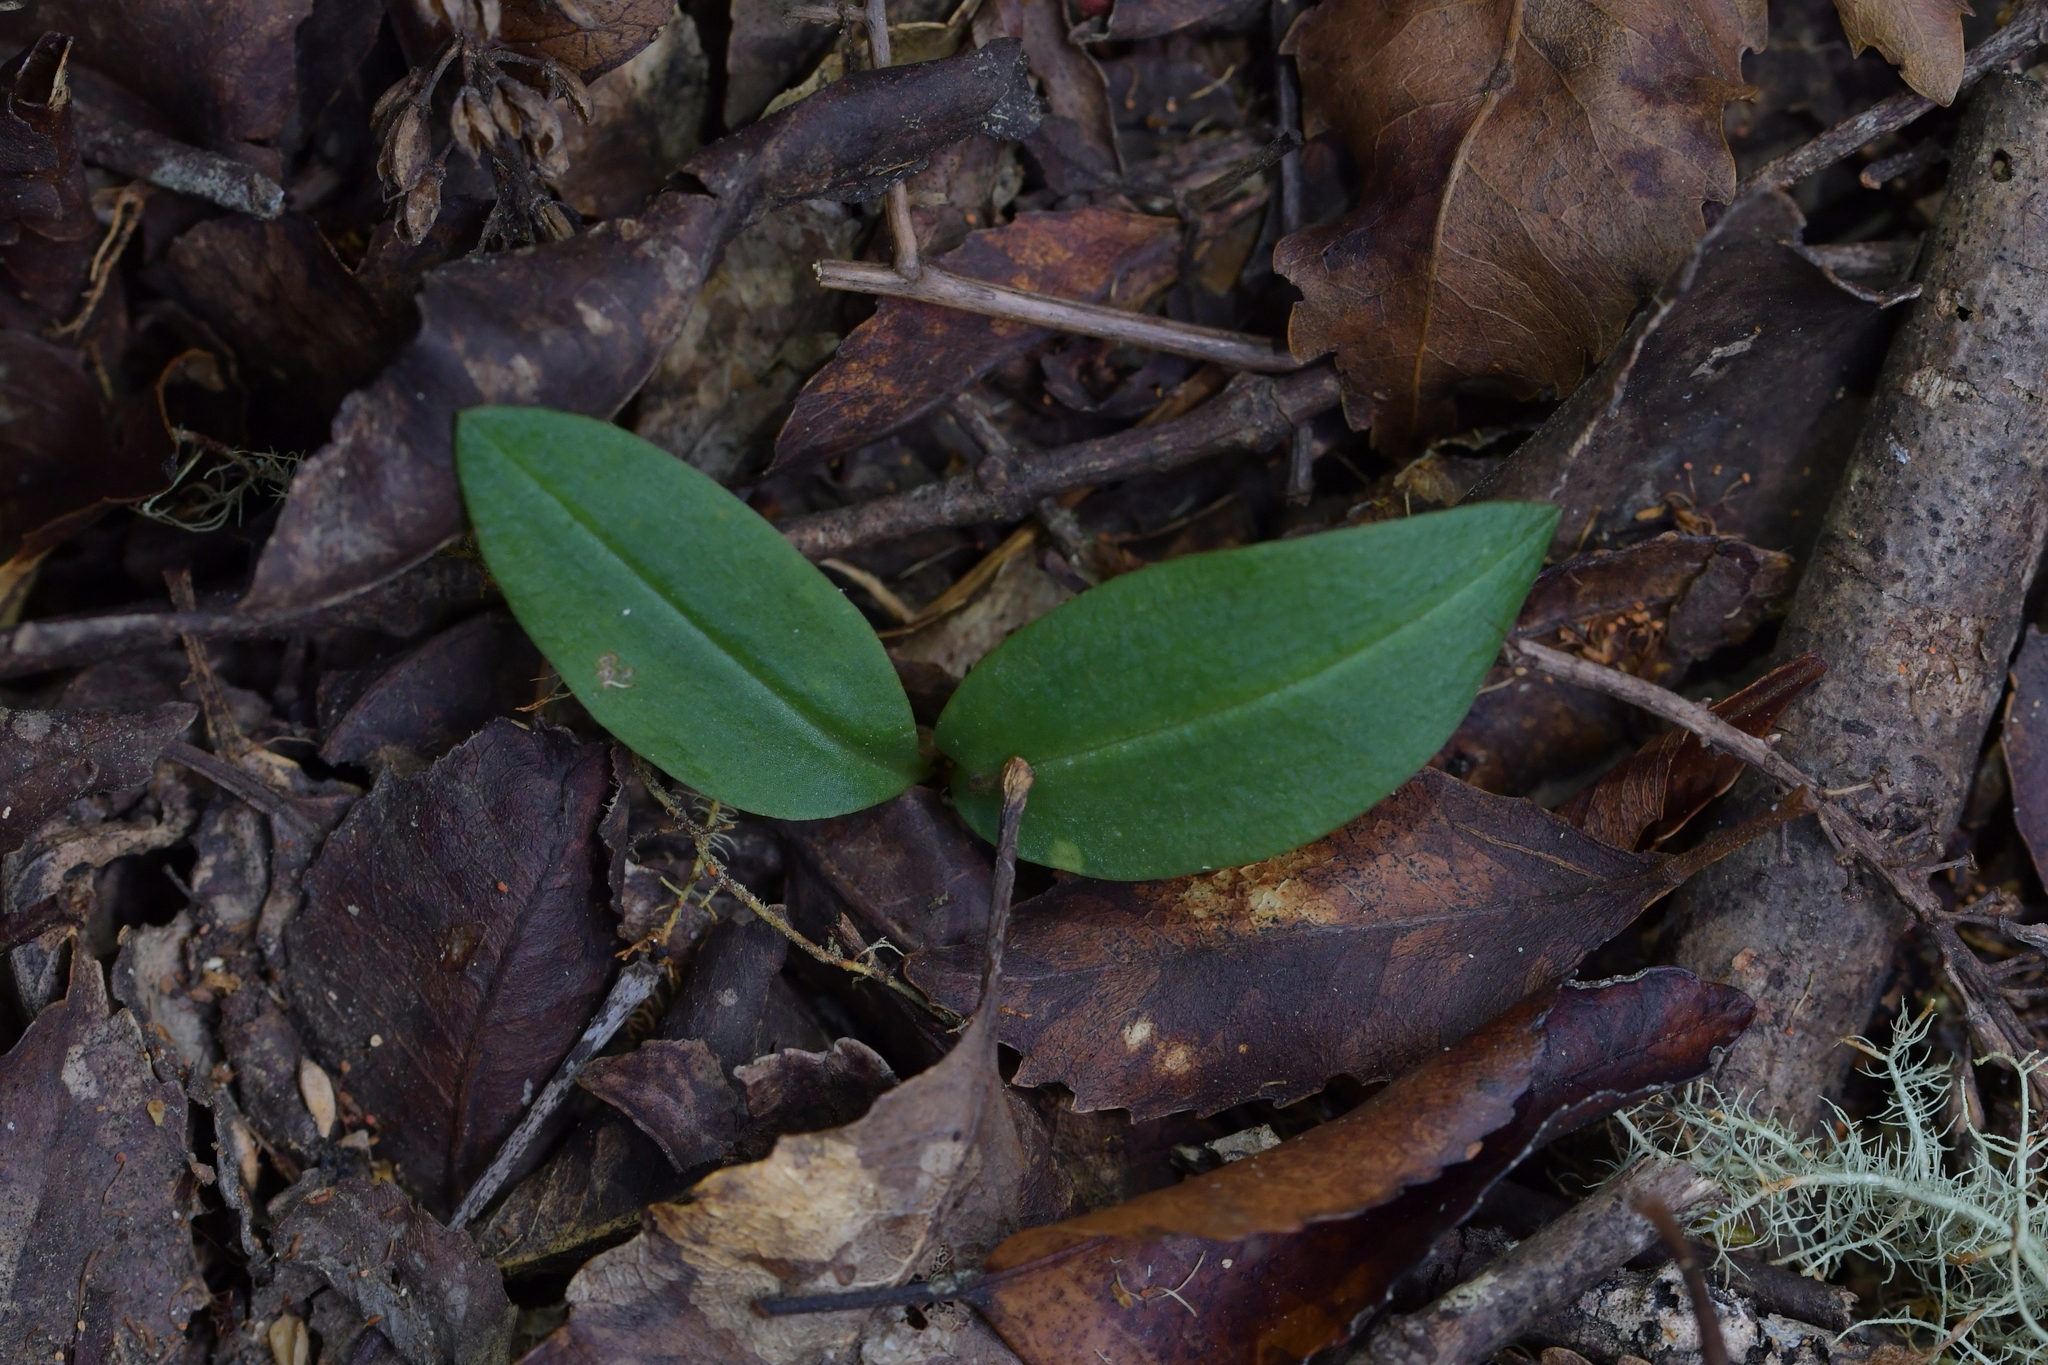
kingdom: Plantae
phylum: Tracheophyta
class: Liliopsida
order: Asparagales
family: Orchidaceae
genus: Chiloglottis
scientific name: Chiloglottis cornuta
